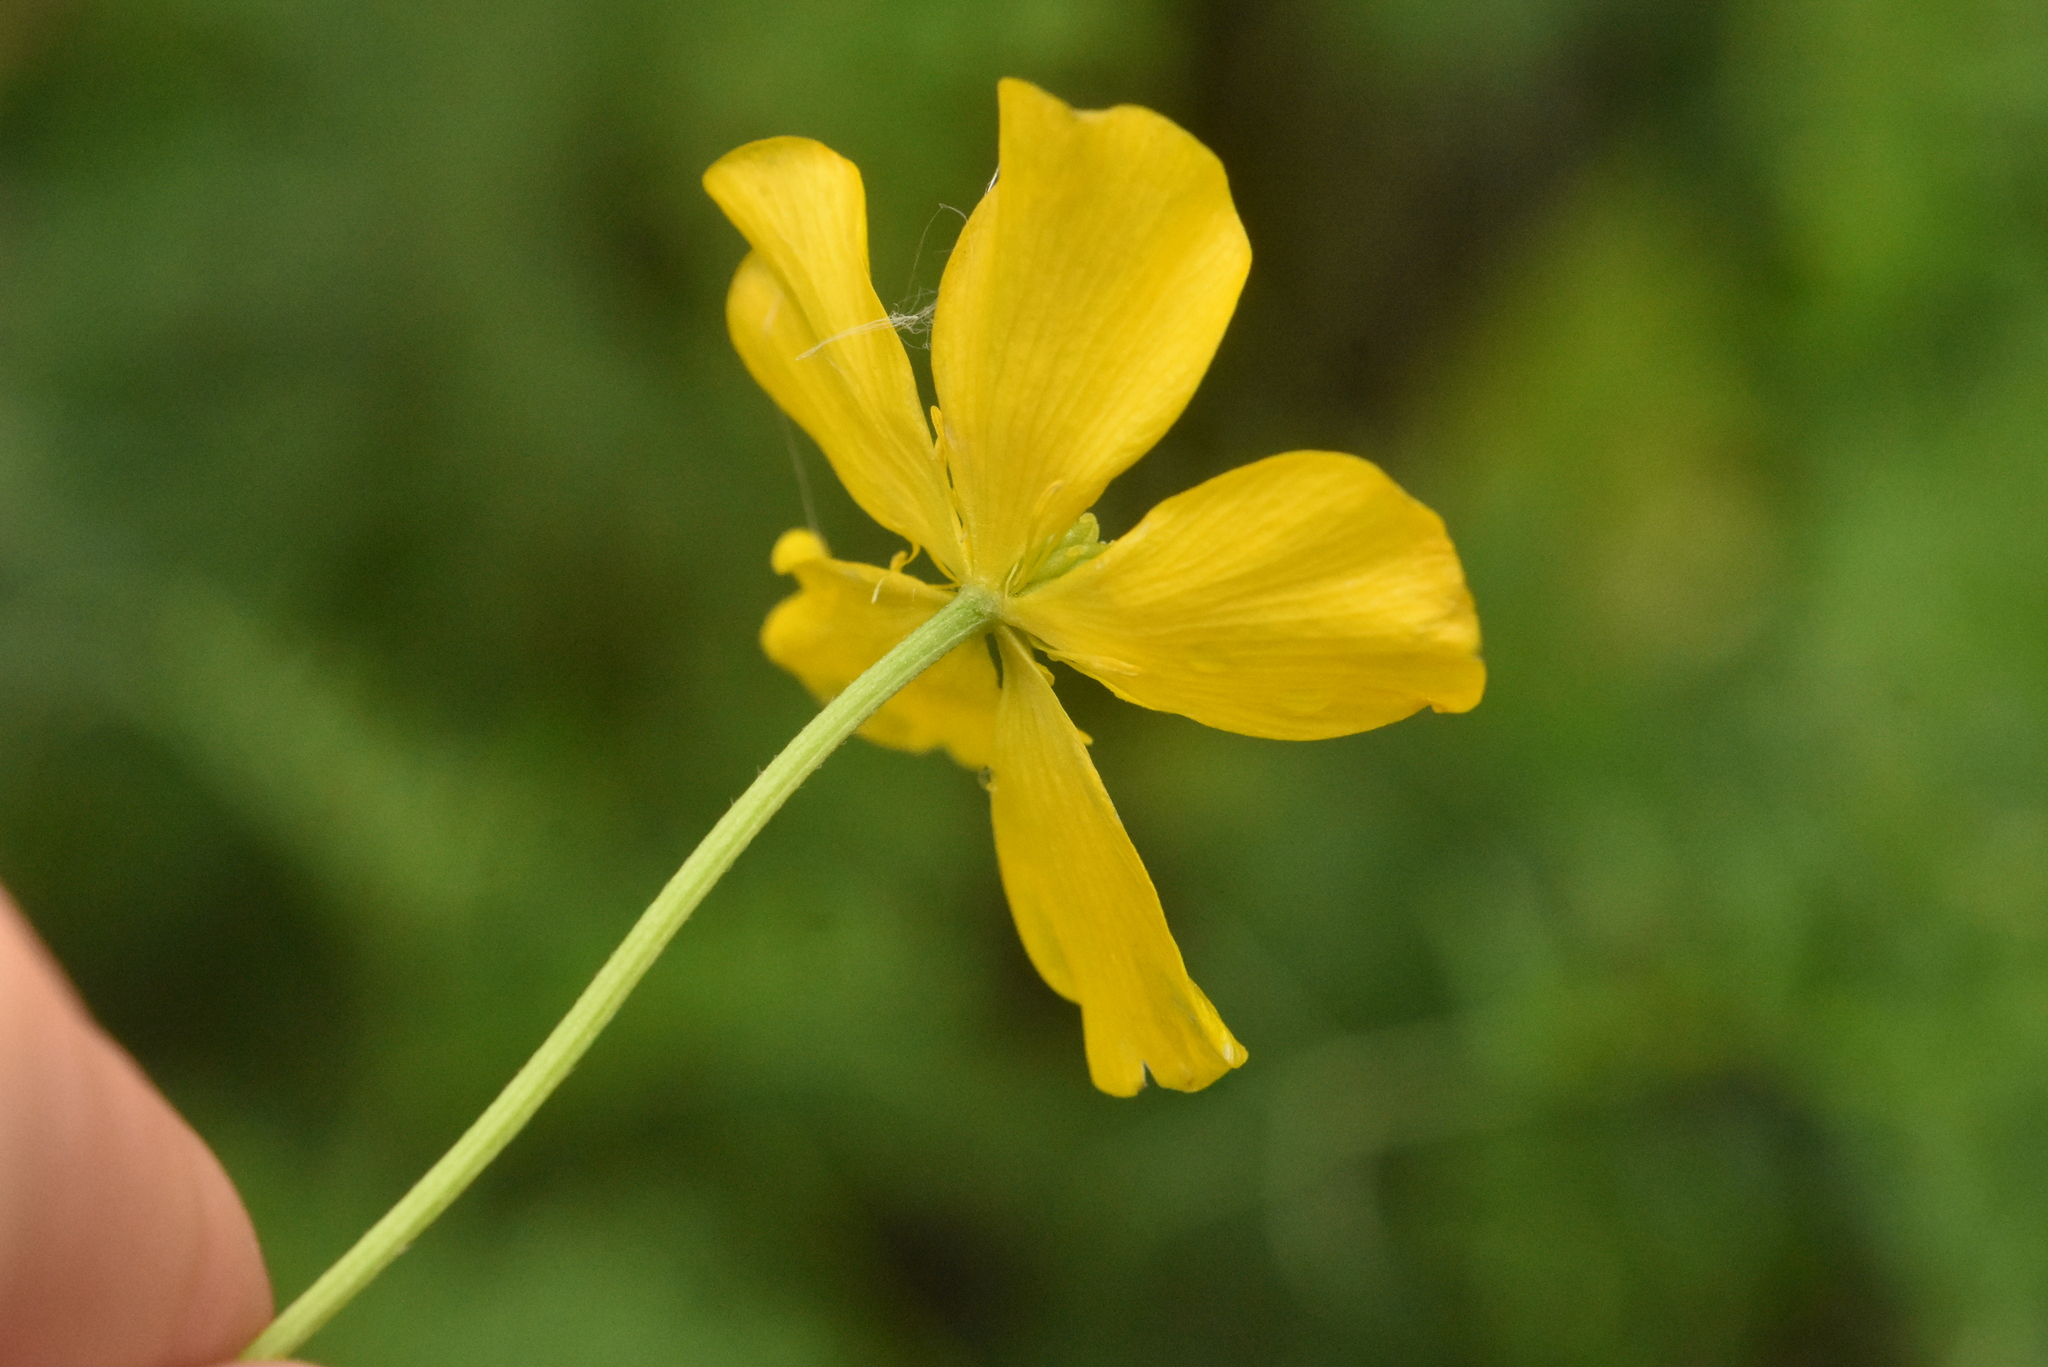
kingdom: Plantae
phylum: Tracheophyta
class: Magnoliopsida
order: Ranunculales
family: Ranunculaceae
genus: Ranunculus
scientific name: Ranunculus polyanthemos
